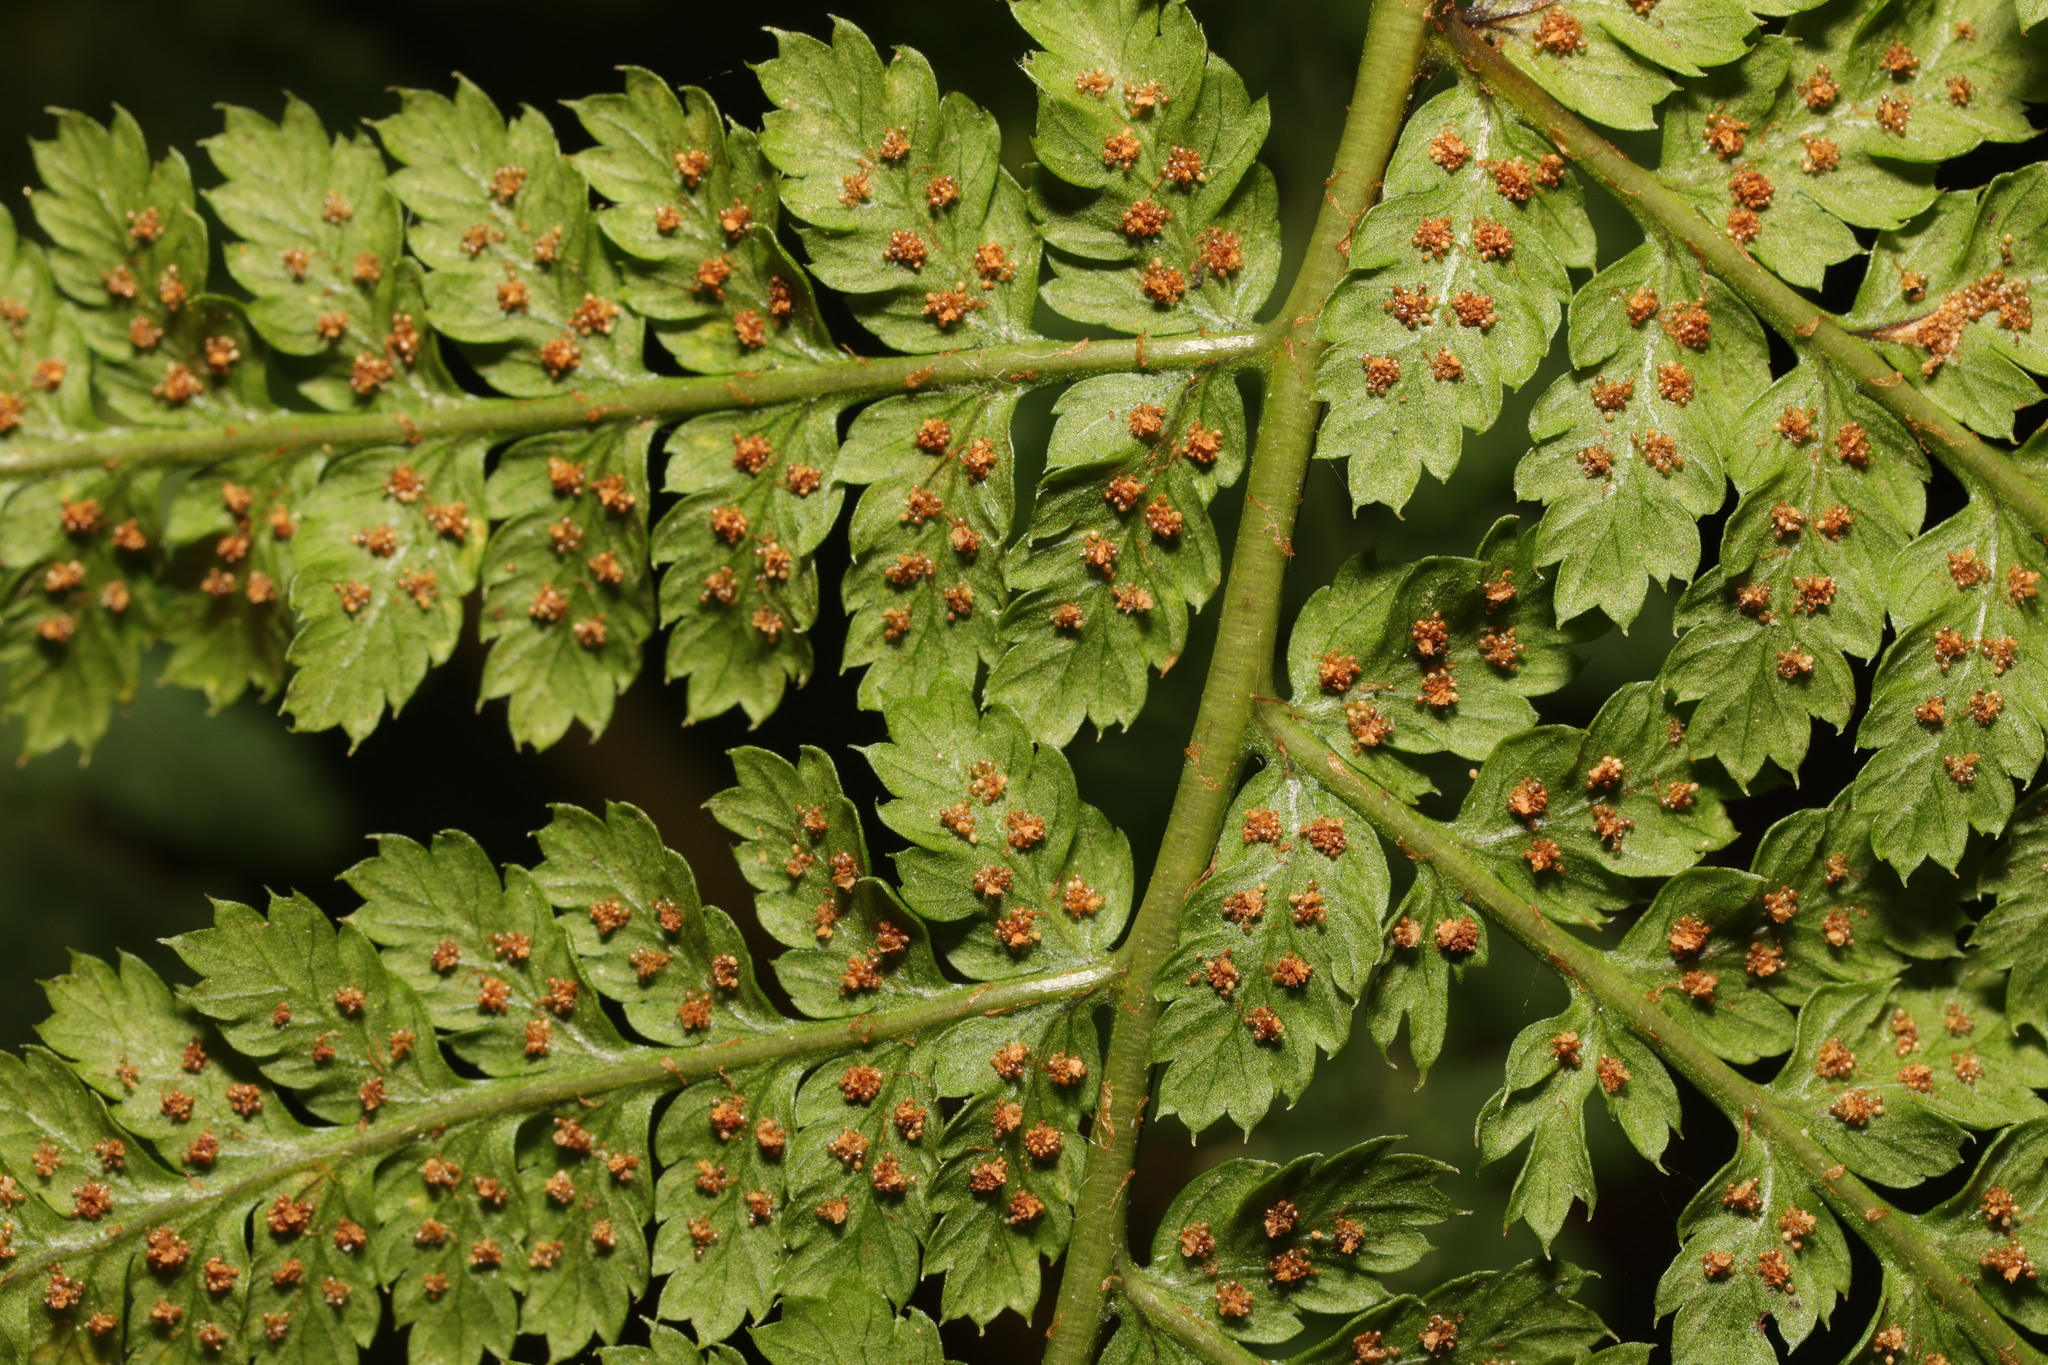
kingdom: Plantae
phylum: Tracheophyta
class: Polypodiopsida
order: Polypodiales
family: Dryopteridaceae
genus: Dryopteris
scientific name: Dryopteris dilatata
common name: Broad buckler-fern
